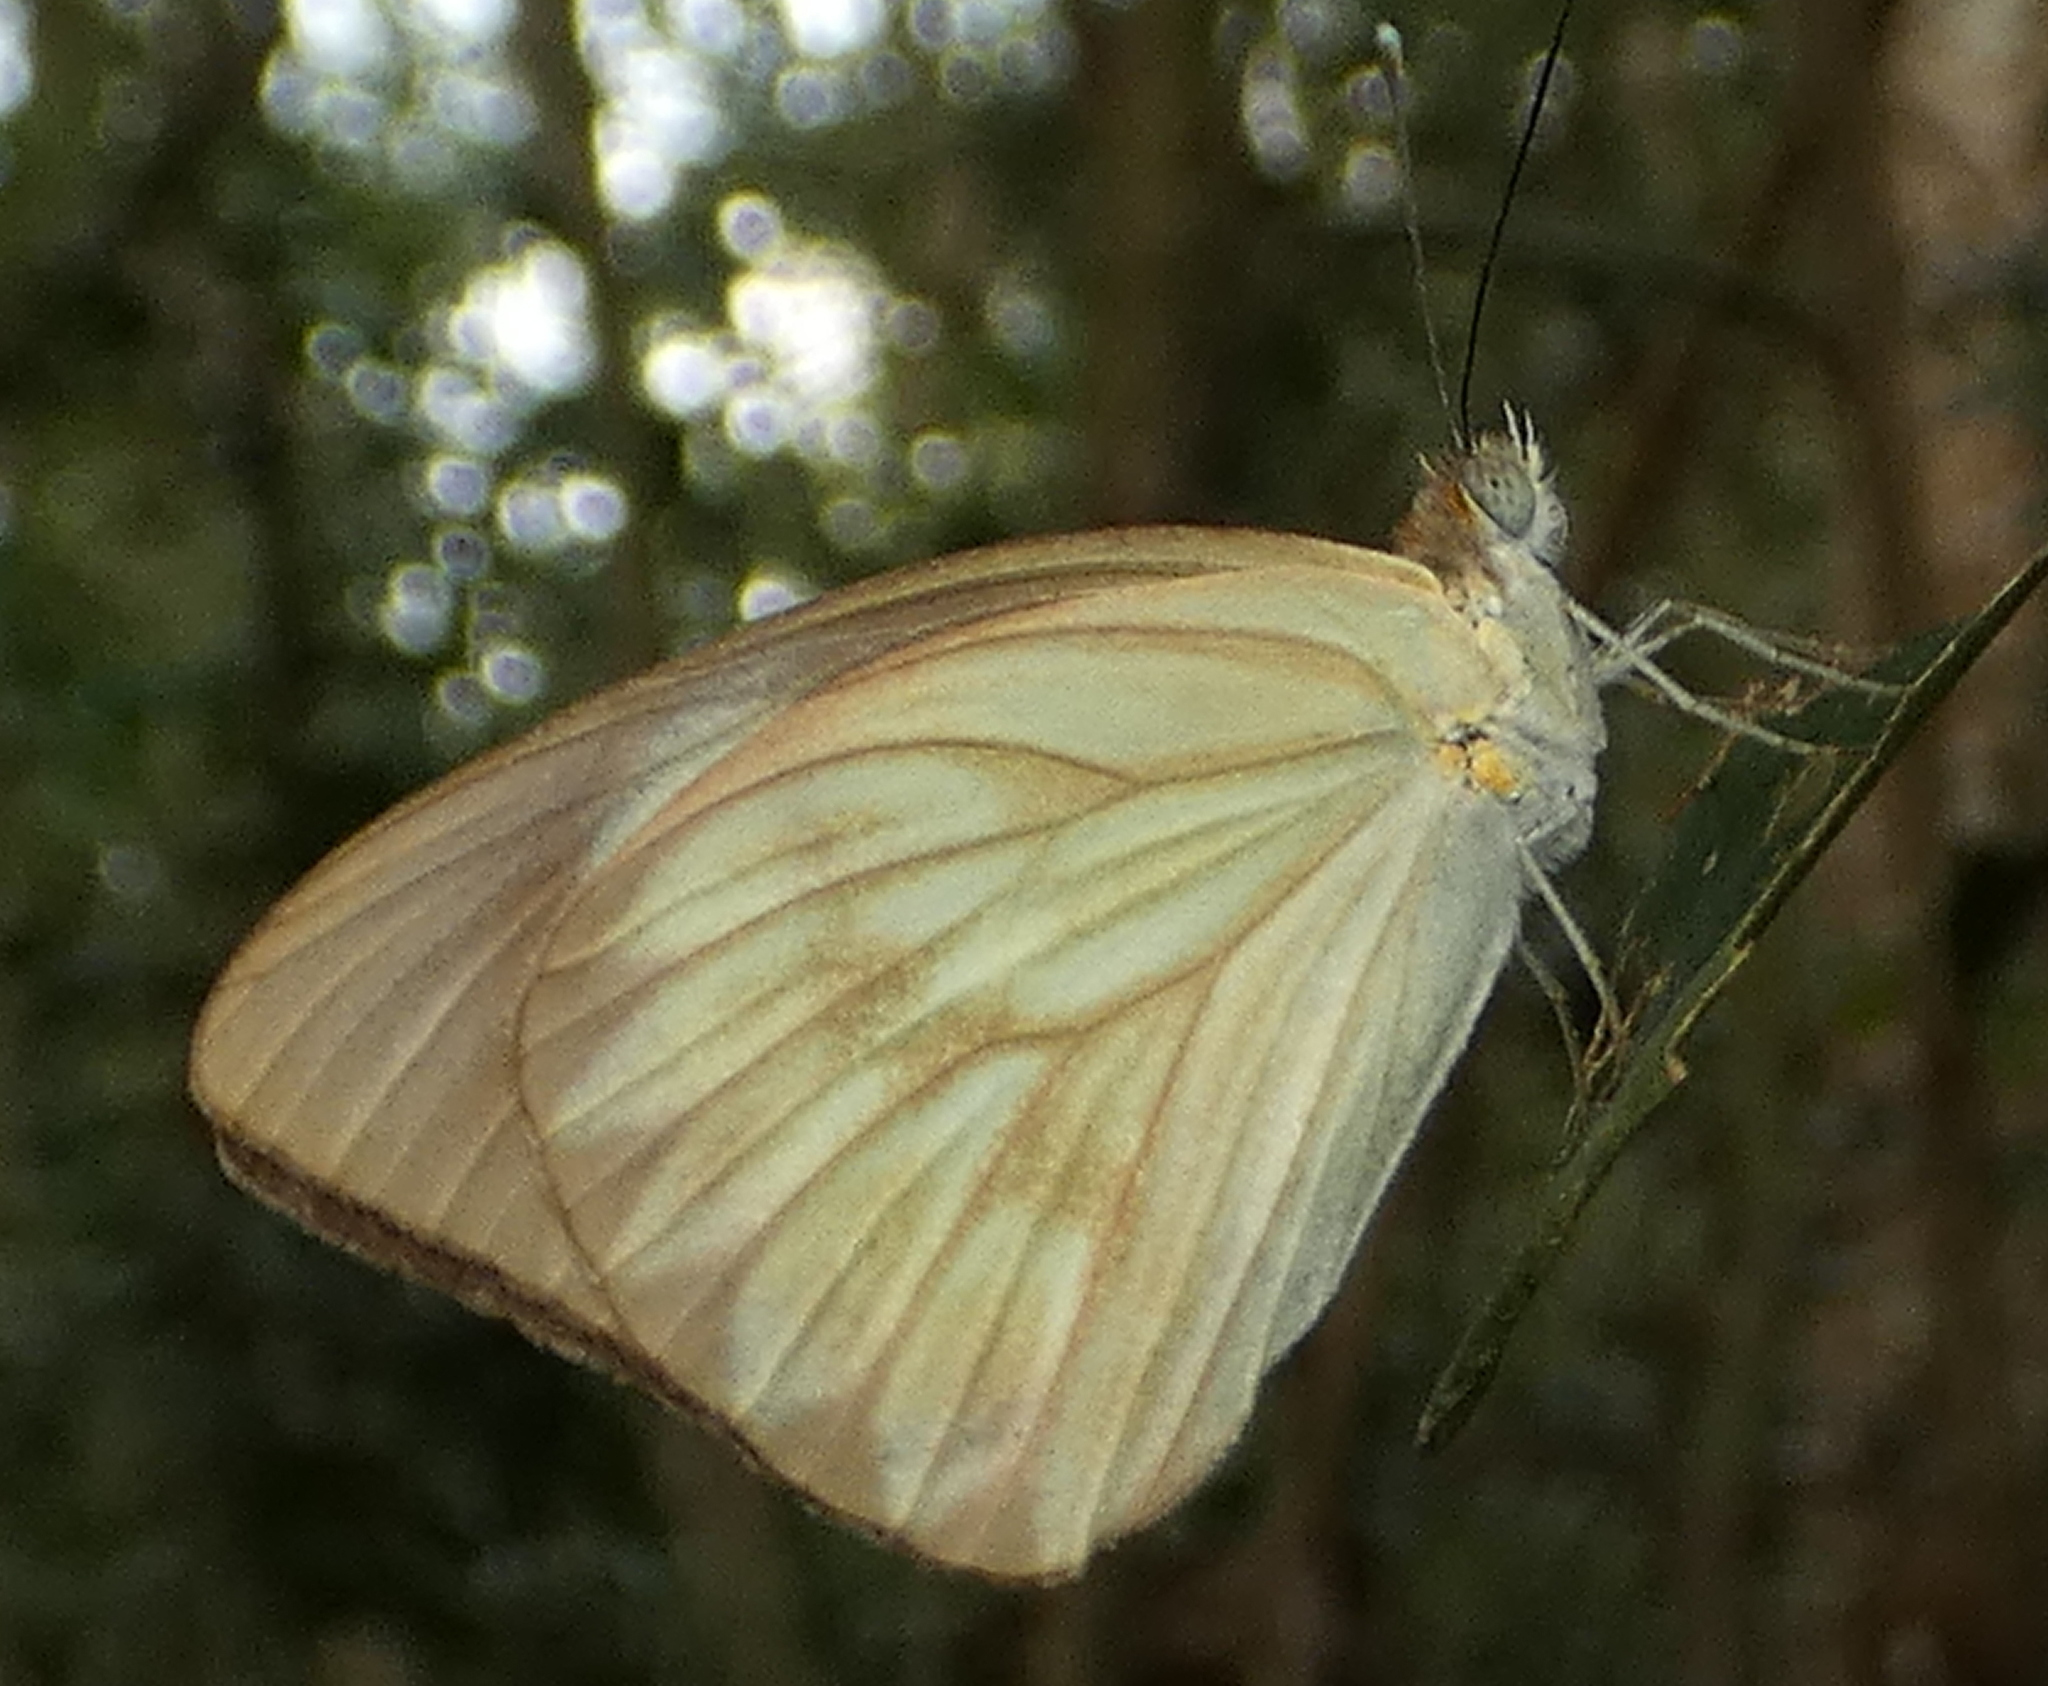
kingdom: Animalia
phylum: Arthropoda
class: Insecta
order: Lepidoptera
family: Pieridae
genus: Ascia
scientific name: Ascia monuste
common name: Great southern white
